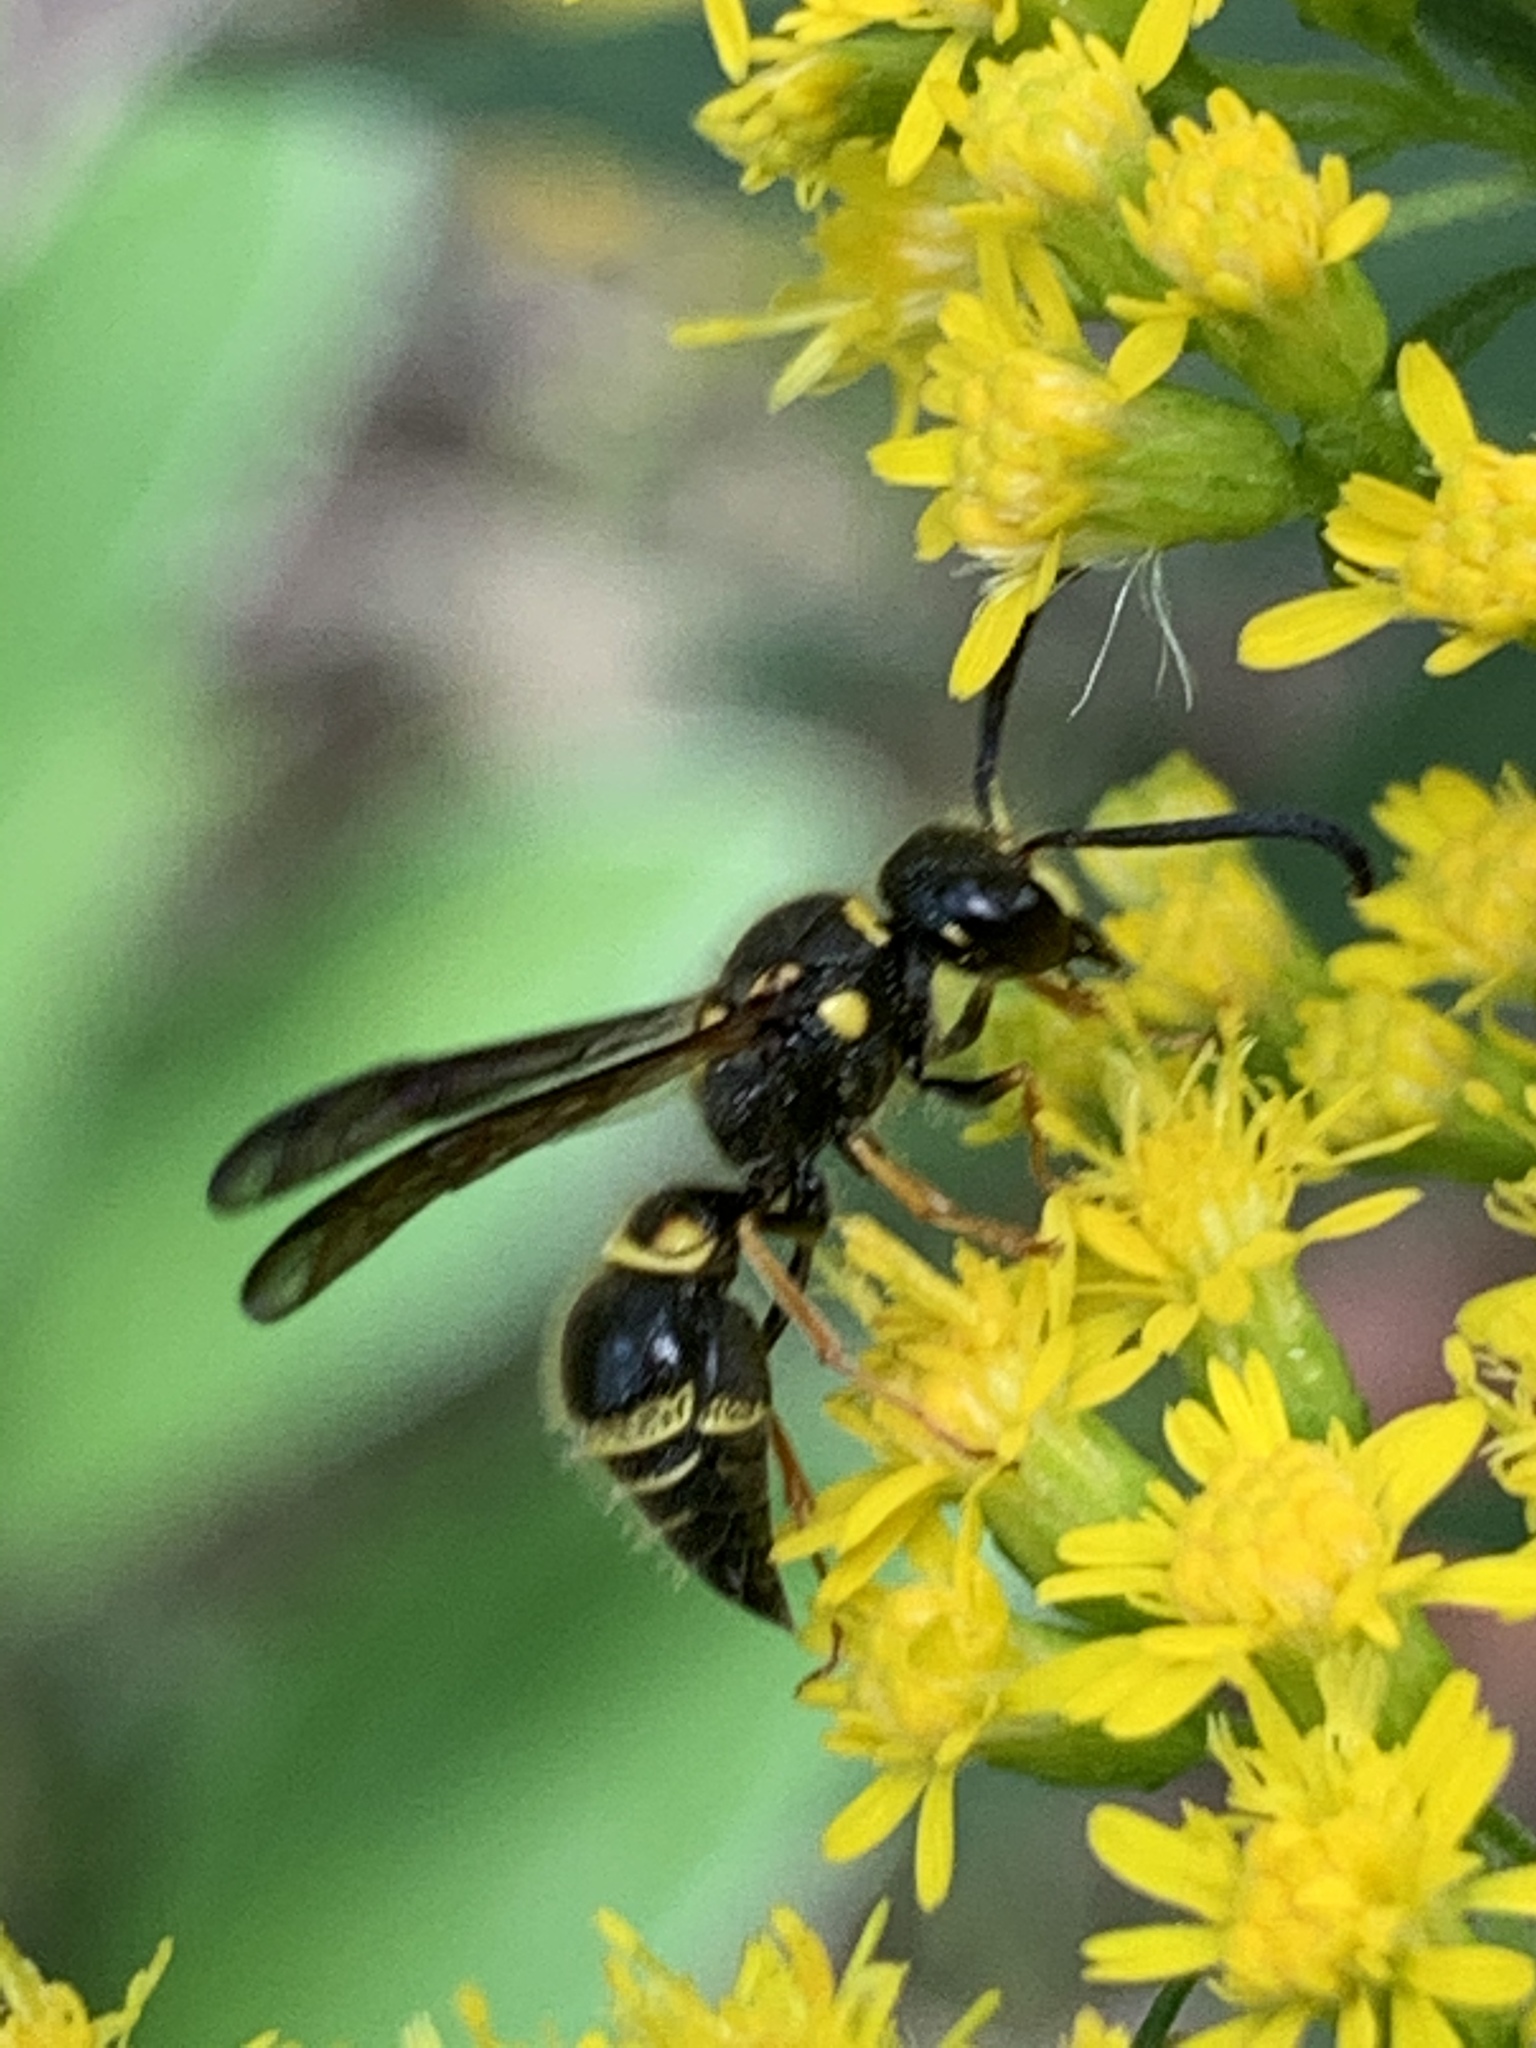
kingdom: Animalia
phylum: Arthropoda
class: Insecta
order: Hymenoptera
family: Vespidae
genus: Ancistrocerus
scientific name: Ancistrocerus campestris
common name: Smiling mason wasp
